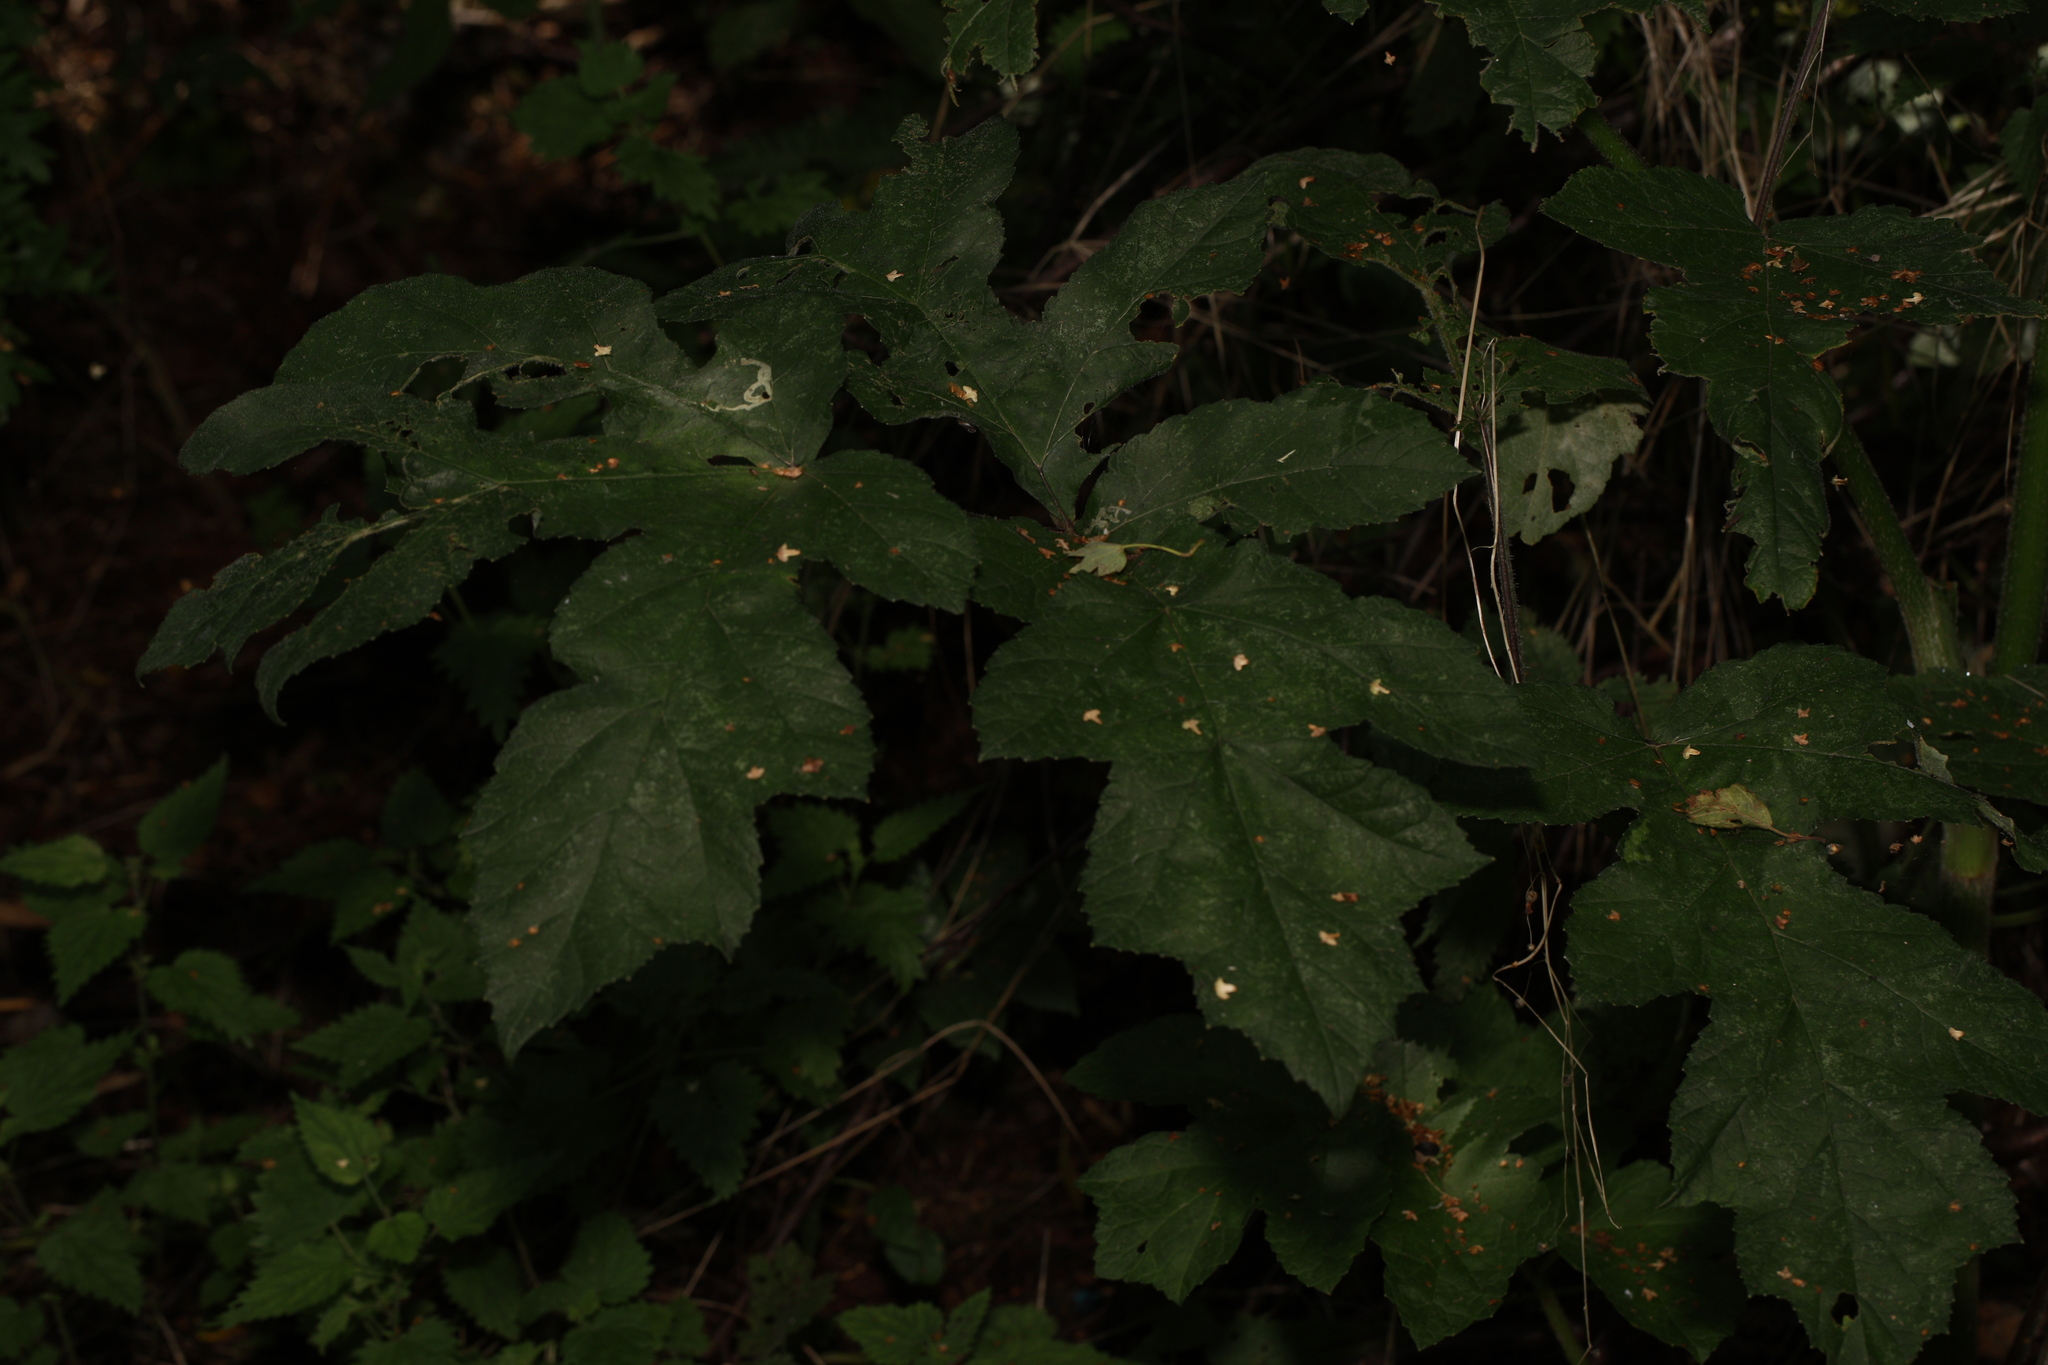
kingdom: Plantae
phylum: Tracheophyta
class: Magnoliopsida
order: Apiales
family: Apiaceae
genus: Heracleum
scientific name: Heracleum sphondylium
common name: Hogweed
